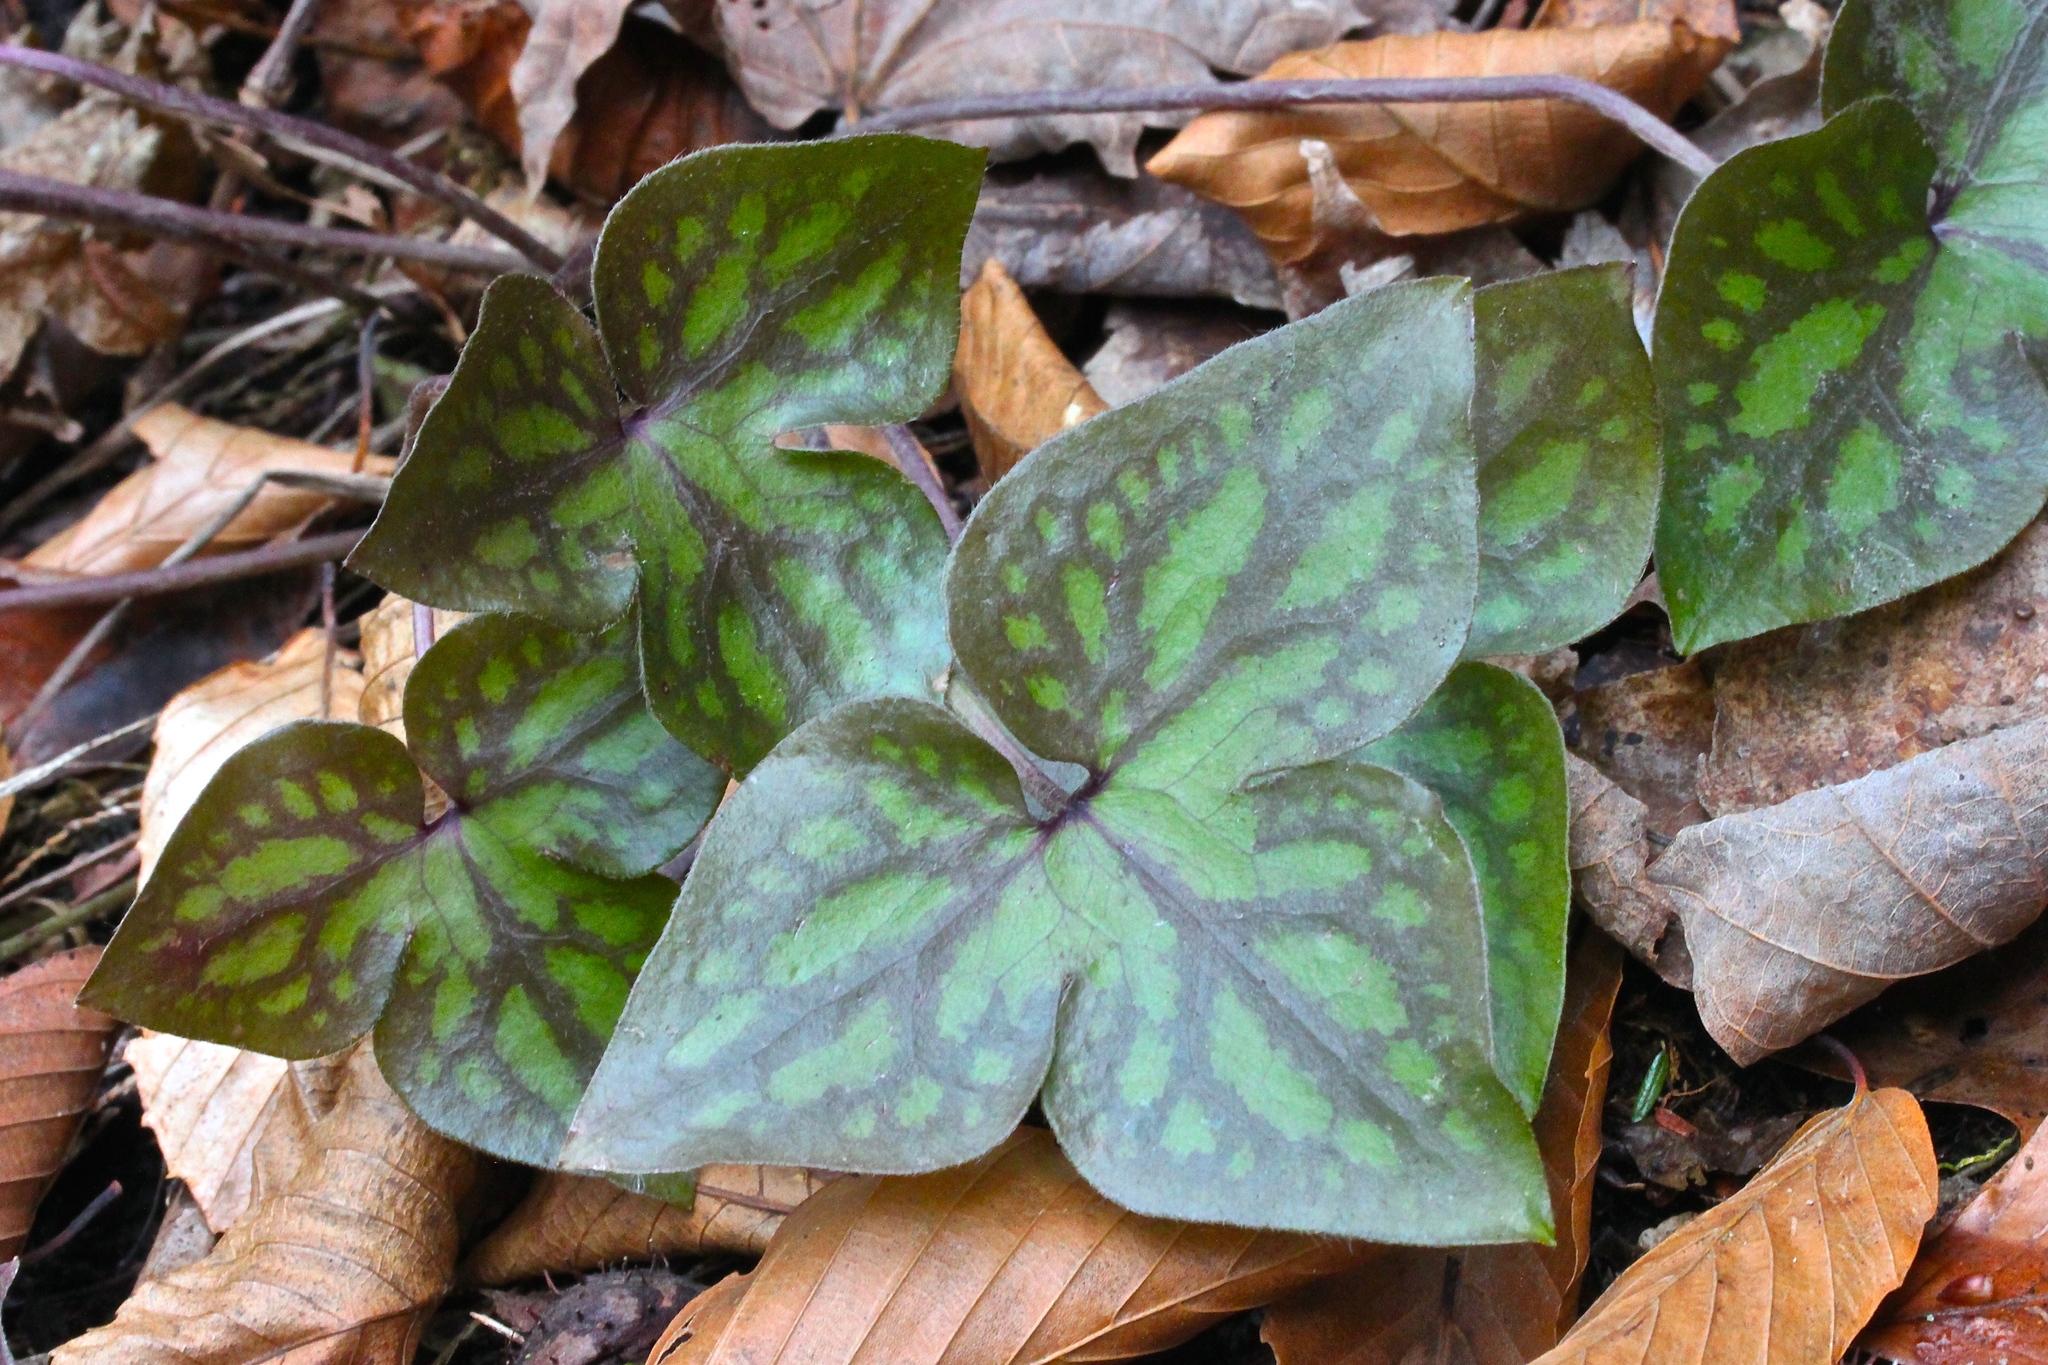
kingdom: Plantae
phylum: Tracheophyta
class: Magnoliopsida
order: Ranunculales
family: Ranunculaceae
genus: Hepatica
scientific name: Hepatica acutiloba
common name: Sharp-lobed hepatica
